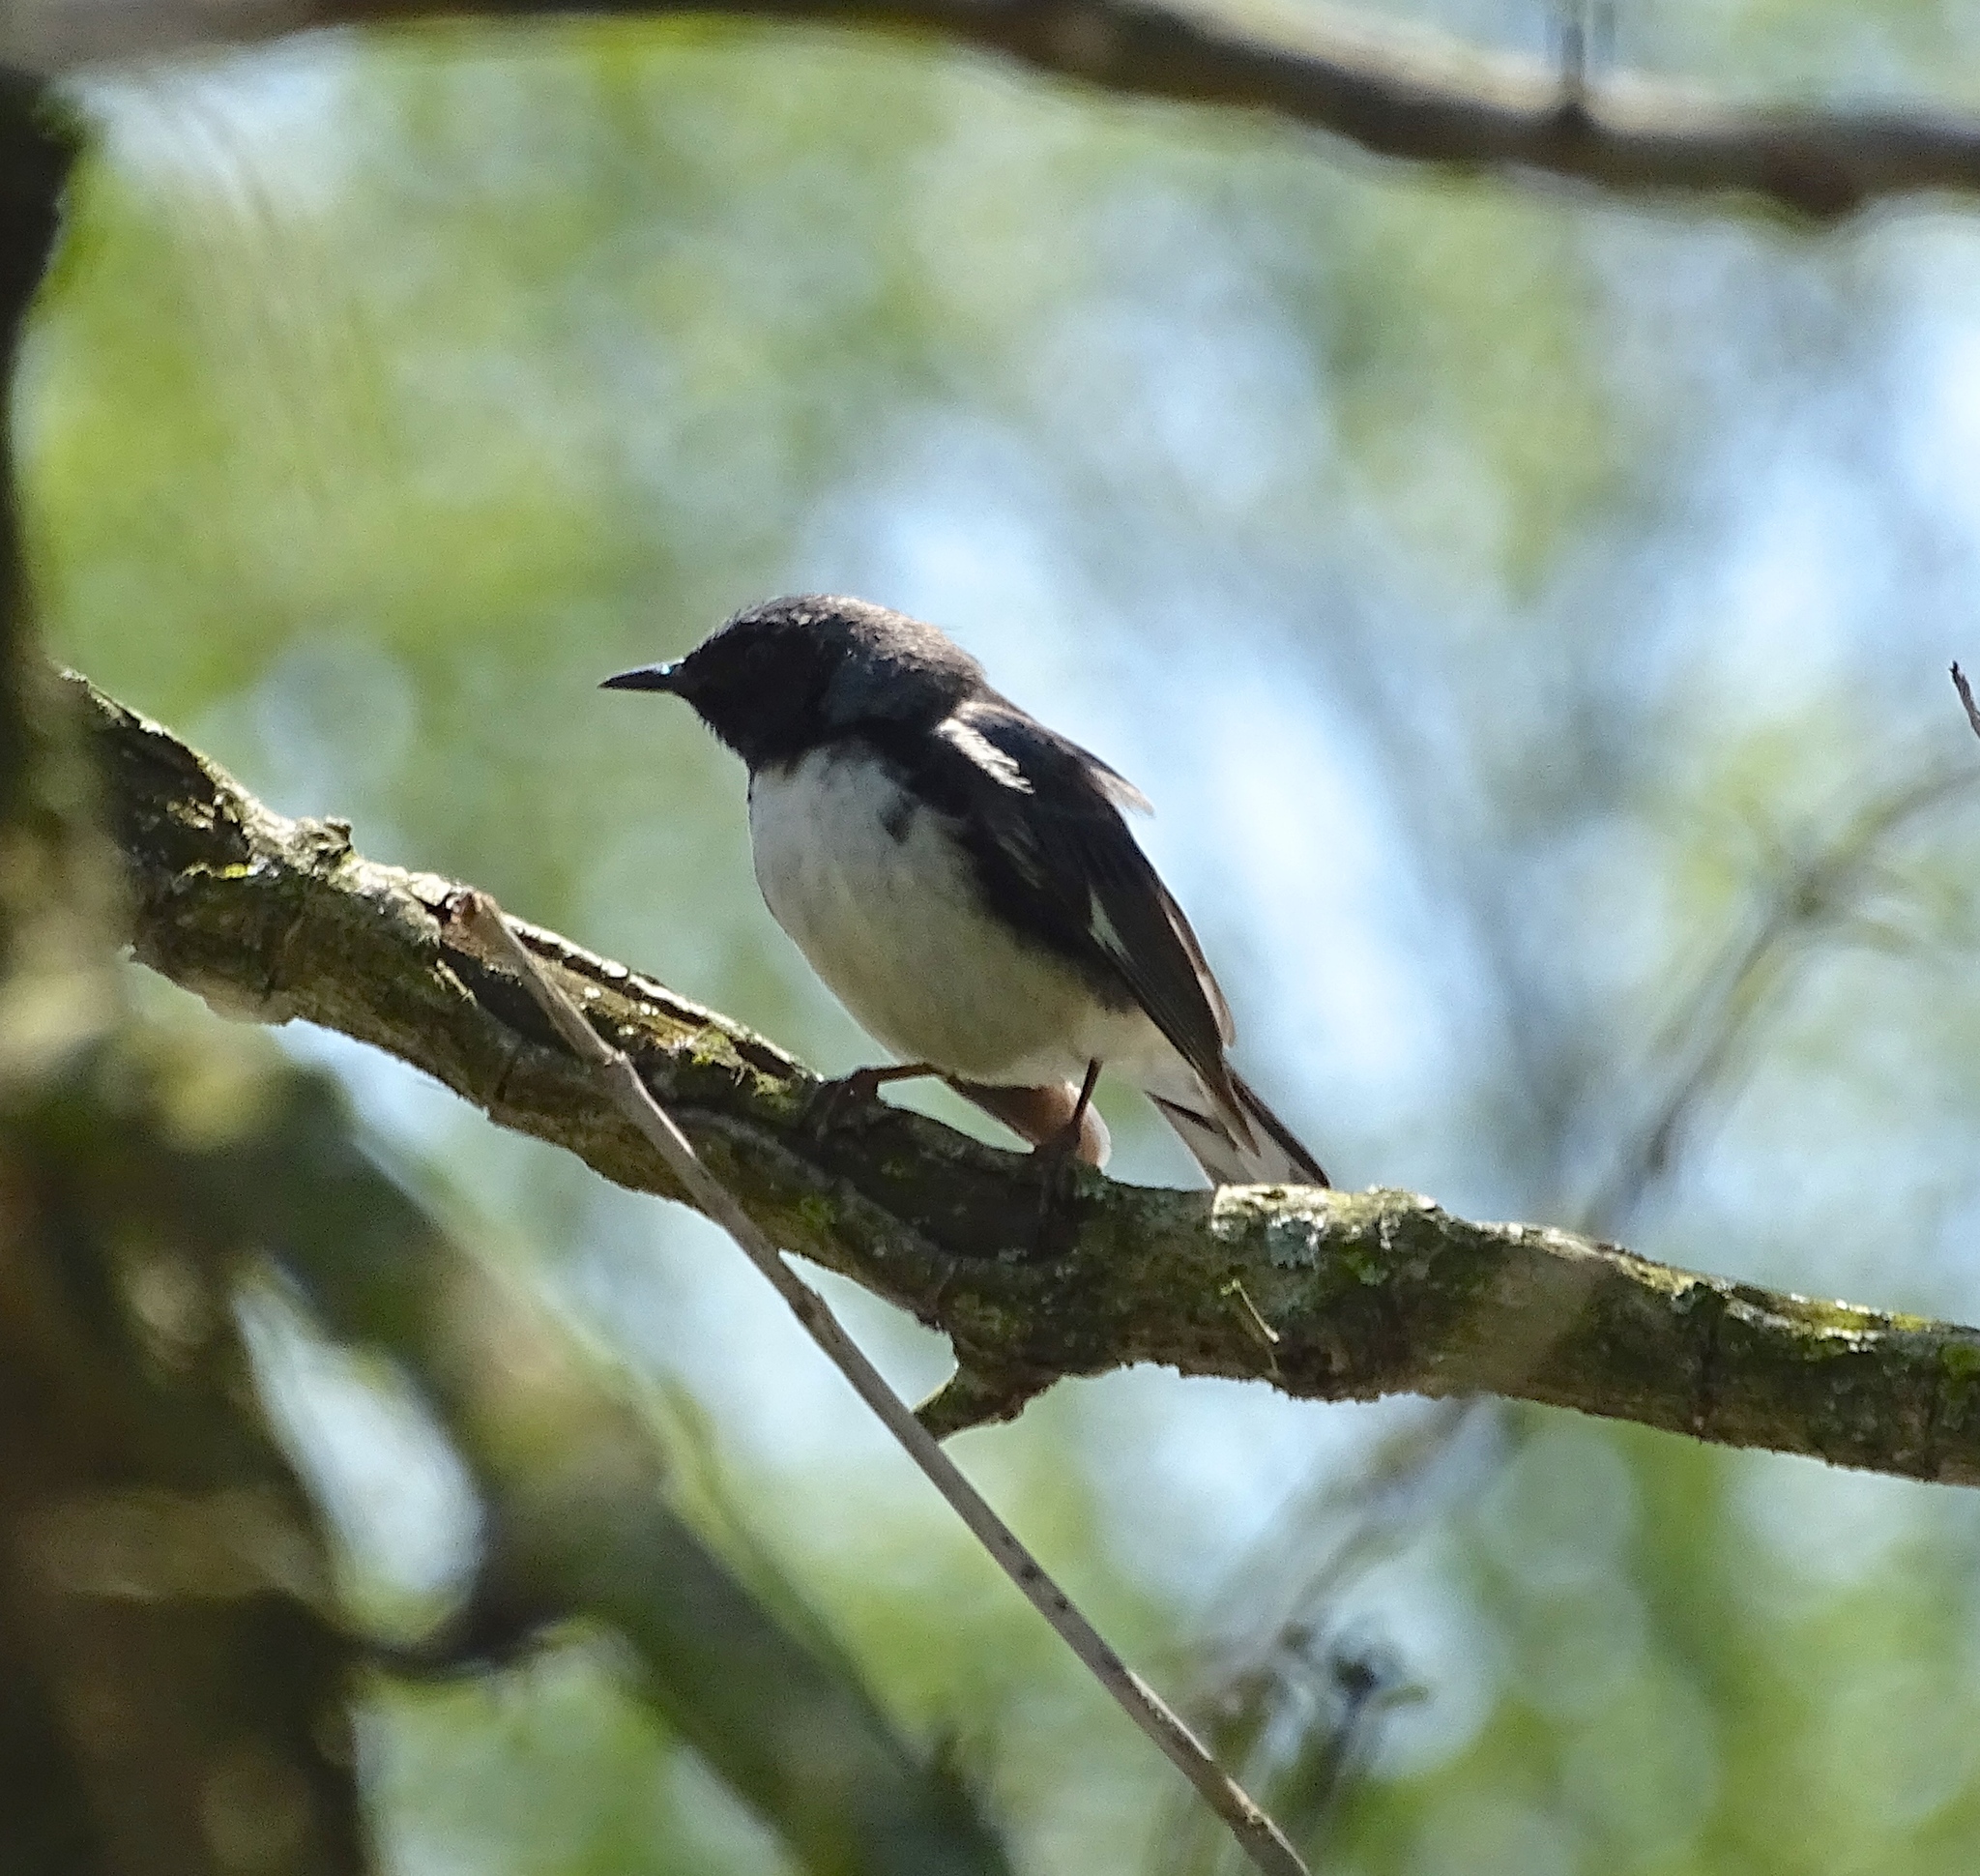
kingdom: Animalia
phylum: Chordata
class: Aves
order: Passeriformes
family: Parulidae
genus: Setophaga
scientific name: Setophaga caerulescens
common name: Black-throated blue warbler
